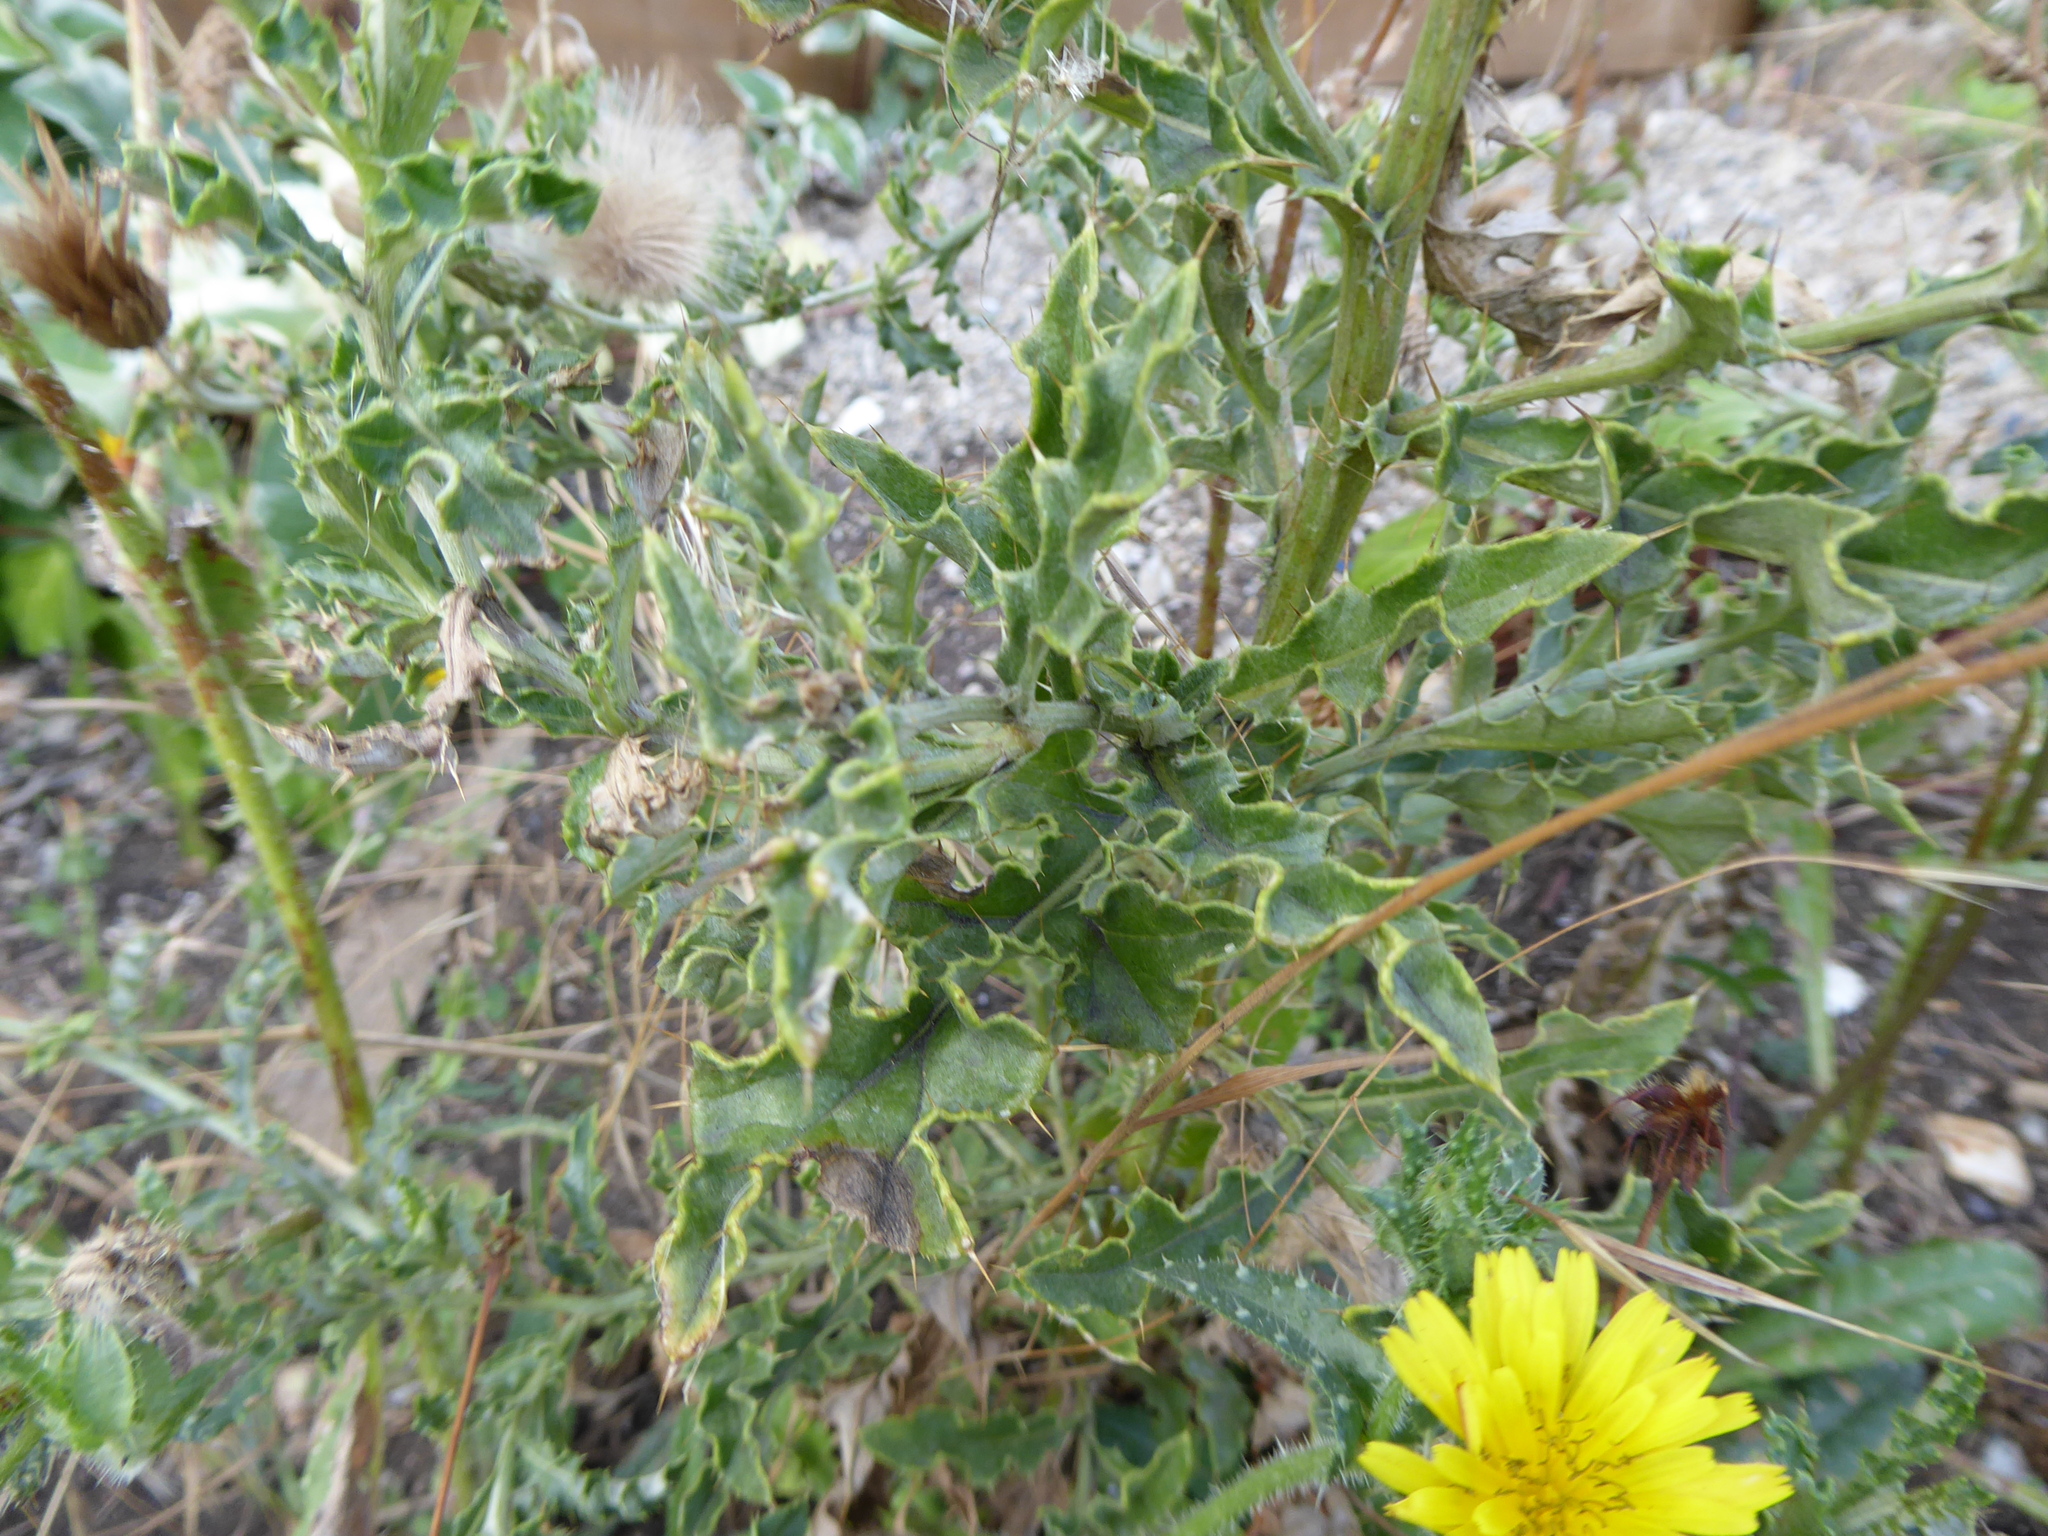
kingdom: Plantae
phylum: Tracheophyta
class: Magnoliopsida
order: Asterales
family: Asteraceae
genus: Cirsium
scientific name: Cirsium arvense
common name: Creeping thistle
